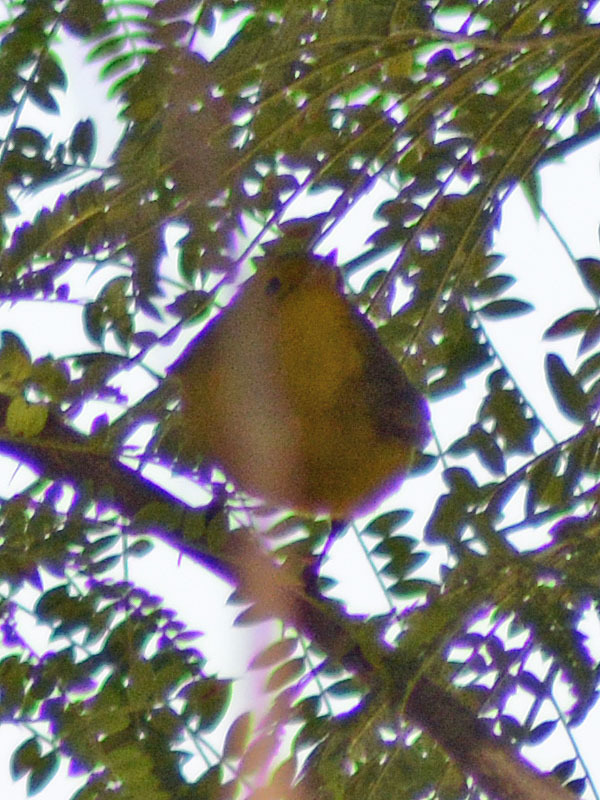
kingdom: Animalia
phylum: Chordata
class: Aves
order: Passeriformes
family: Parulidae
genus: Cardellina
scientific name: Cardellina pusilla
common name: Wilson's warbler
